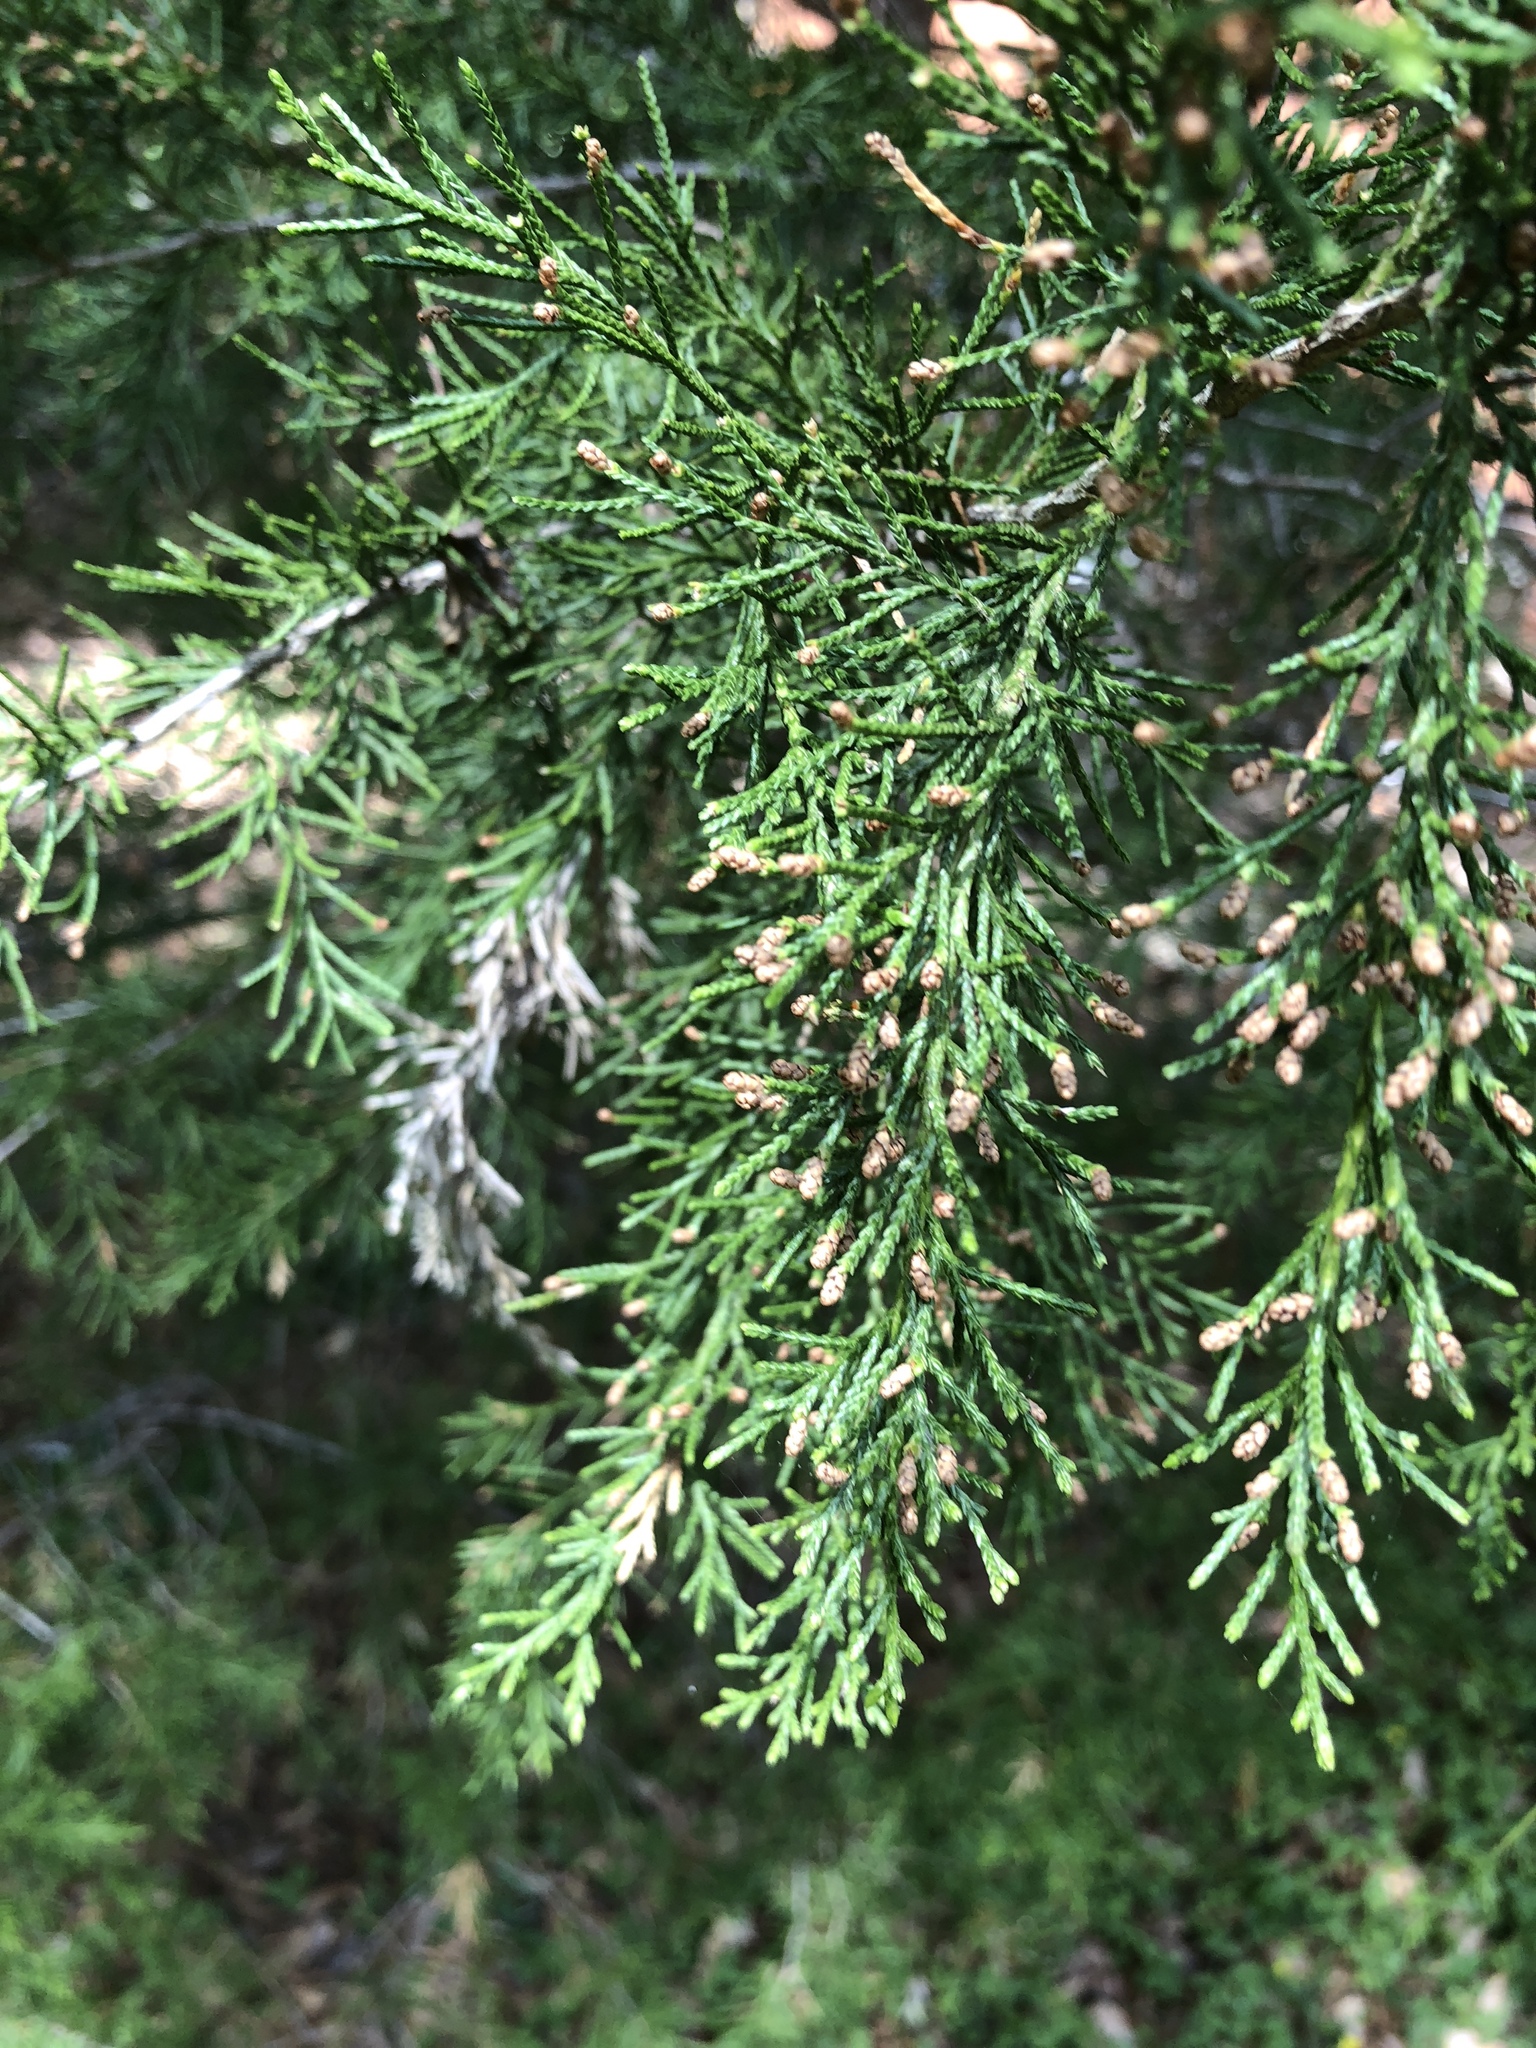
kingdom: Plantae
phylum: Tracheophyta
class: Pinopsida
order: Pinales
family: Cupressaceae
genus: Juniperus
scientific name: Juniperus virginiana
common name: Red juniper
